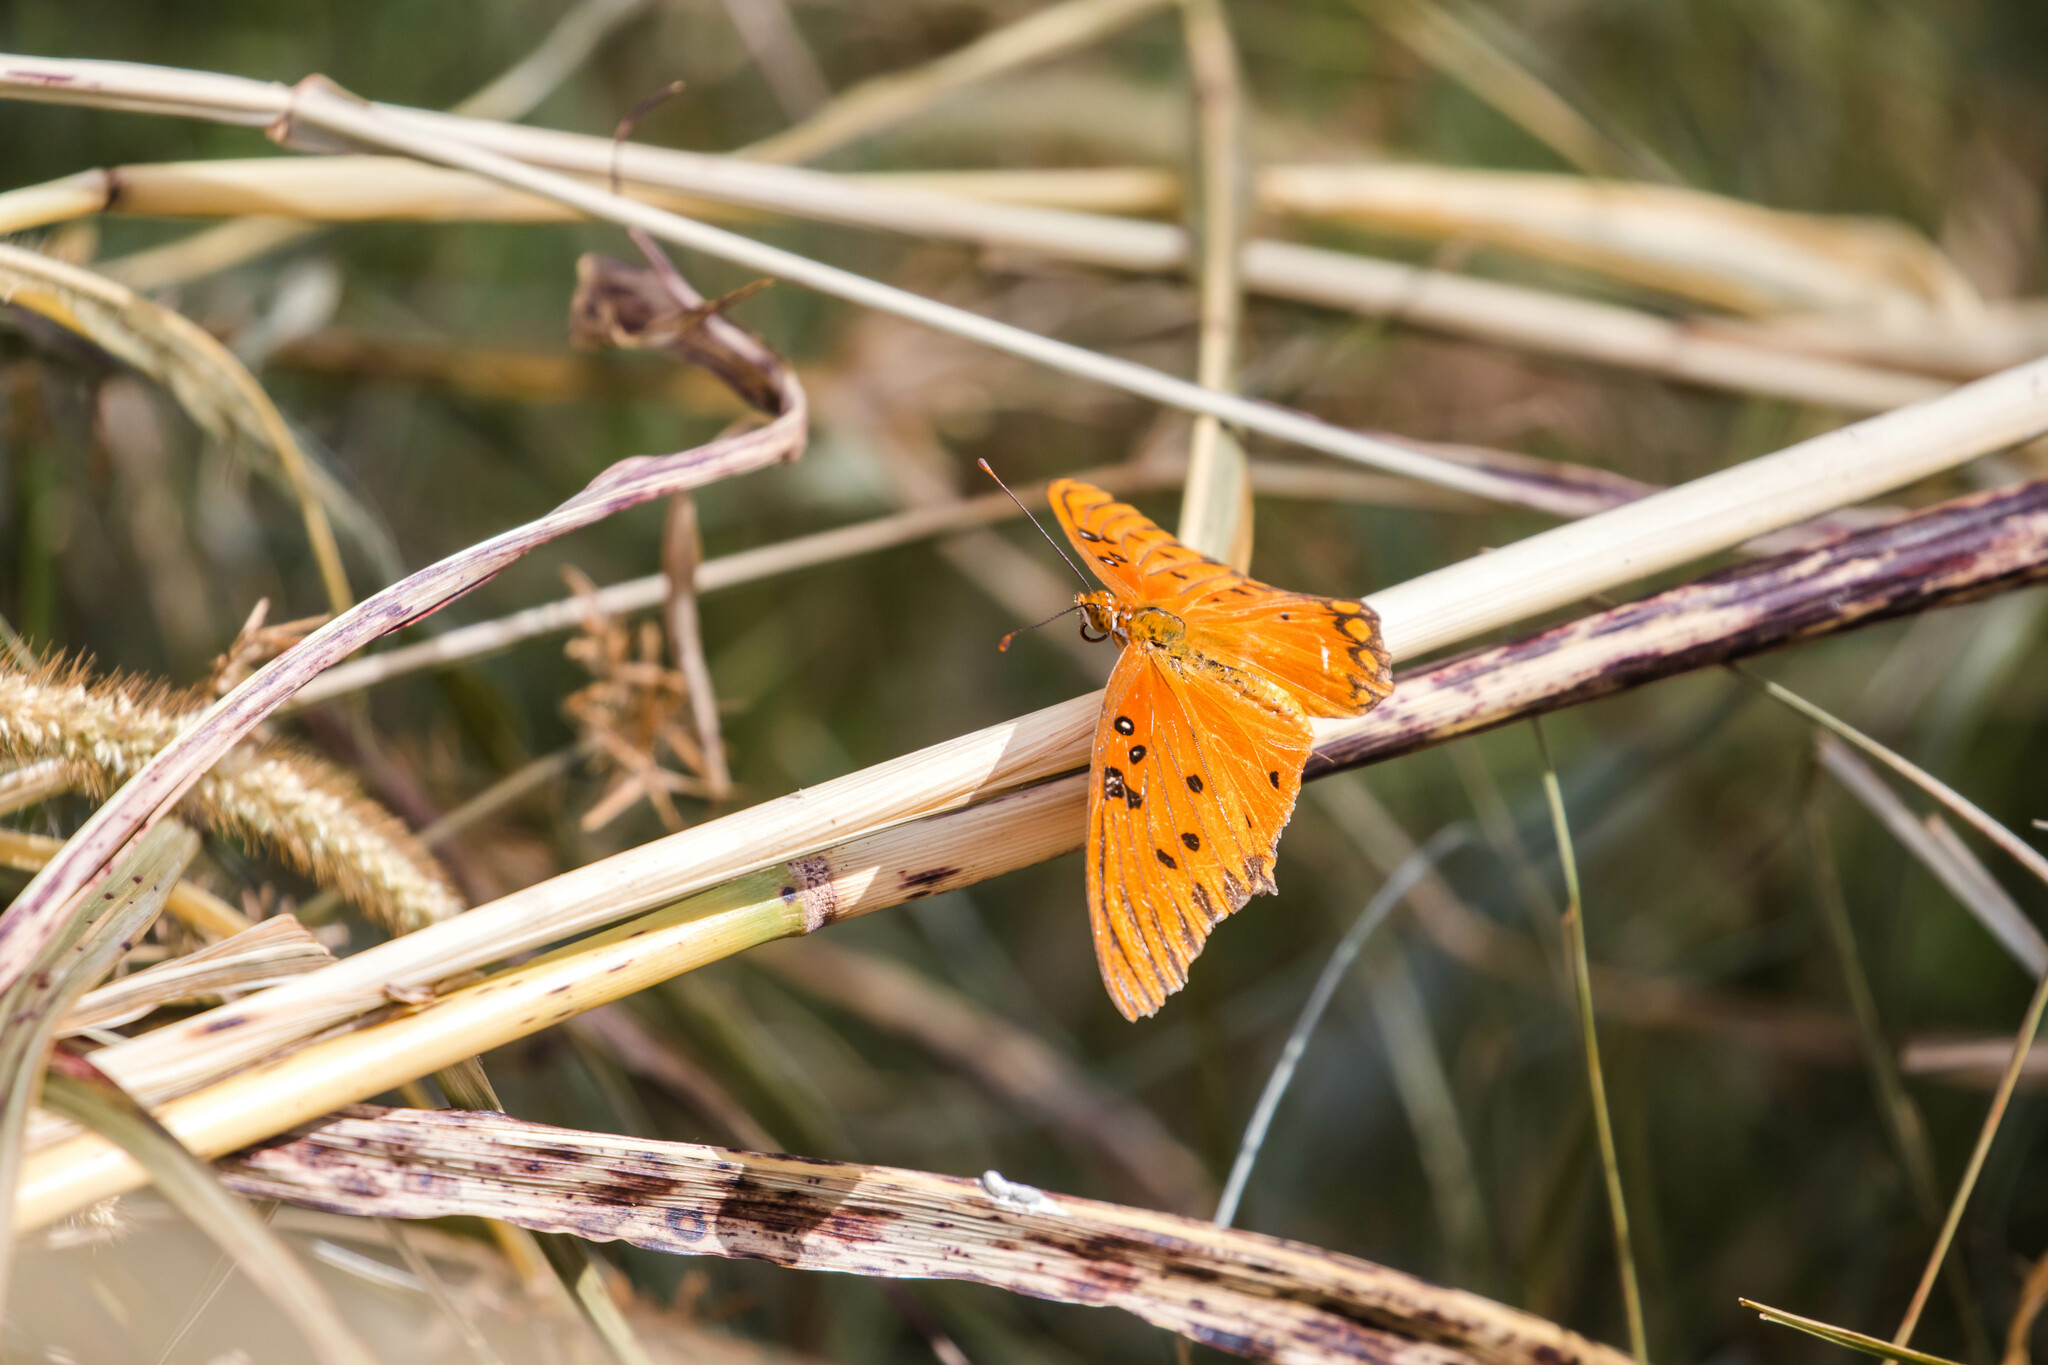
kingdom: Animalia
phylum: Arthropoda
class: Insecta
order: Lepidoptera
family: Nymphalidae
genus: Dione
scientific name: Dione vanillae
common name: Gulf fritillary
